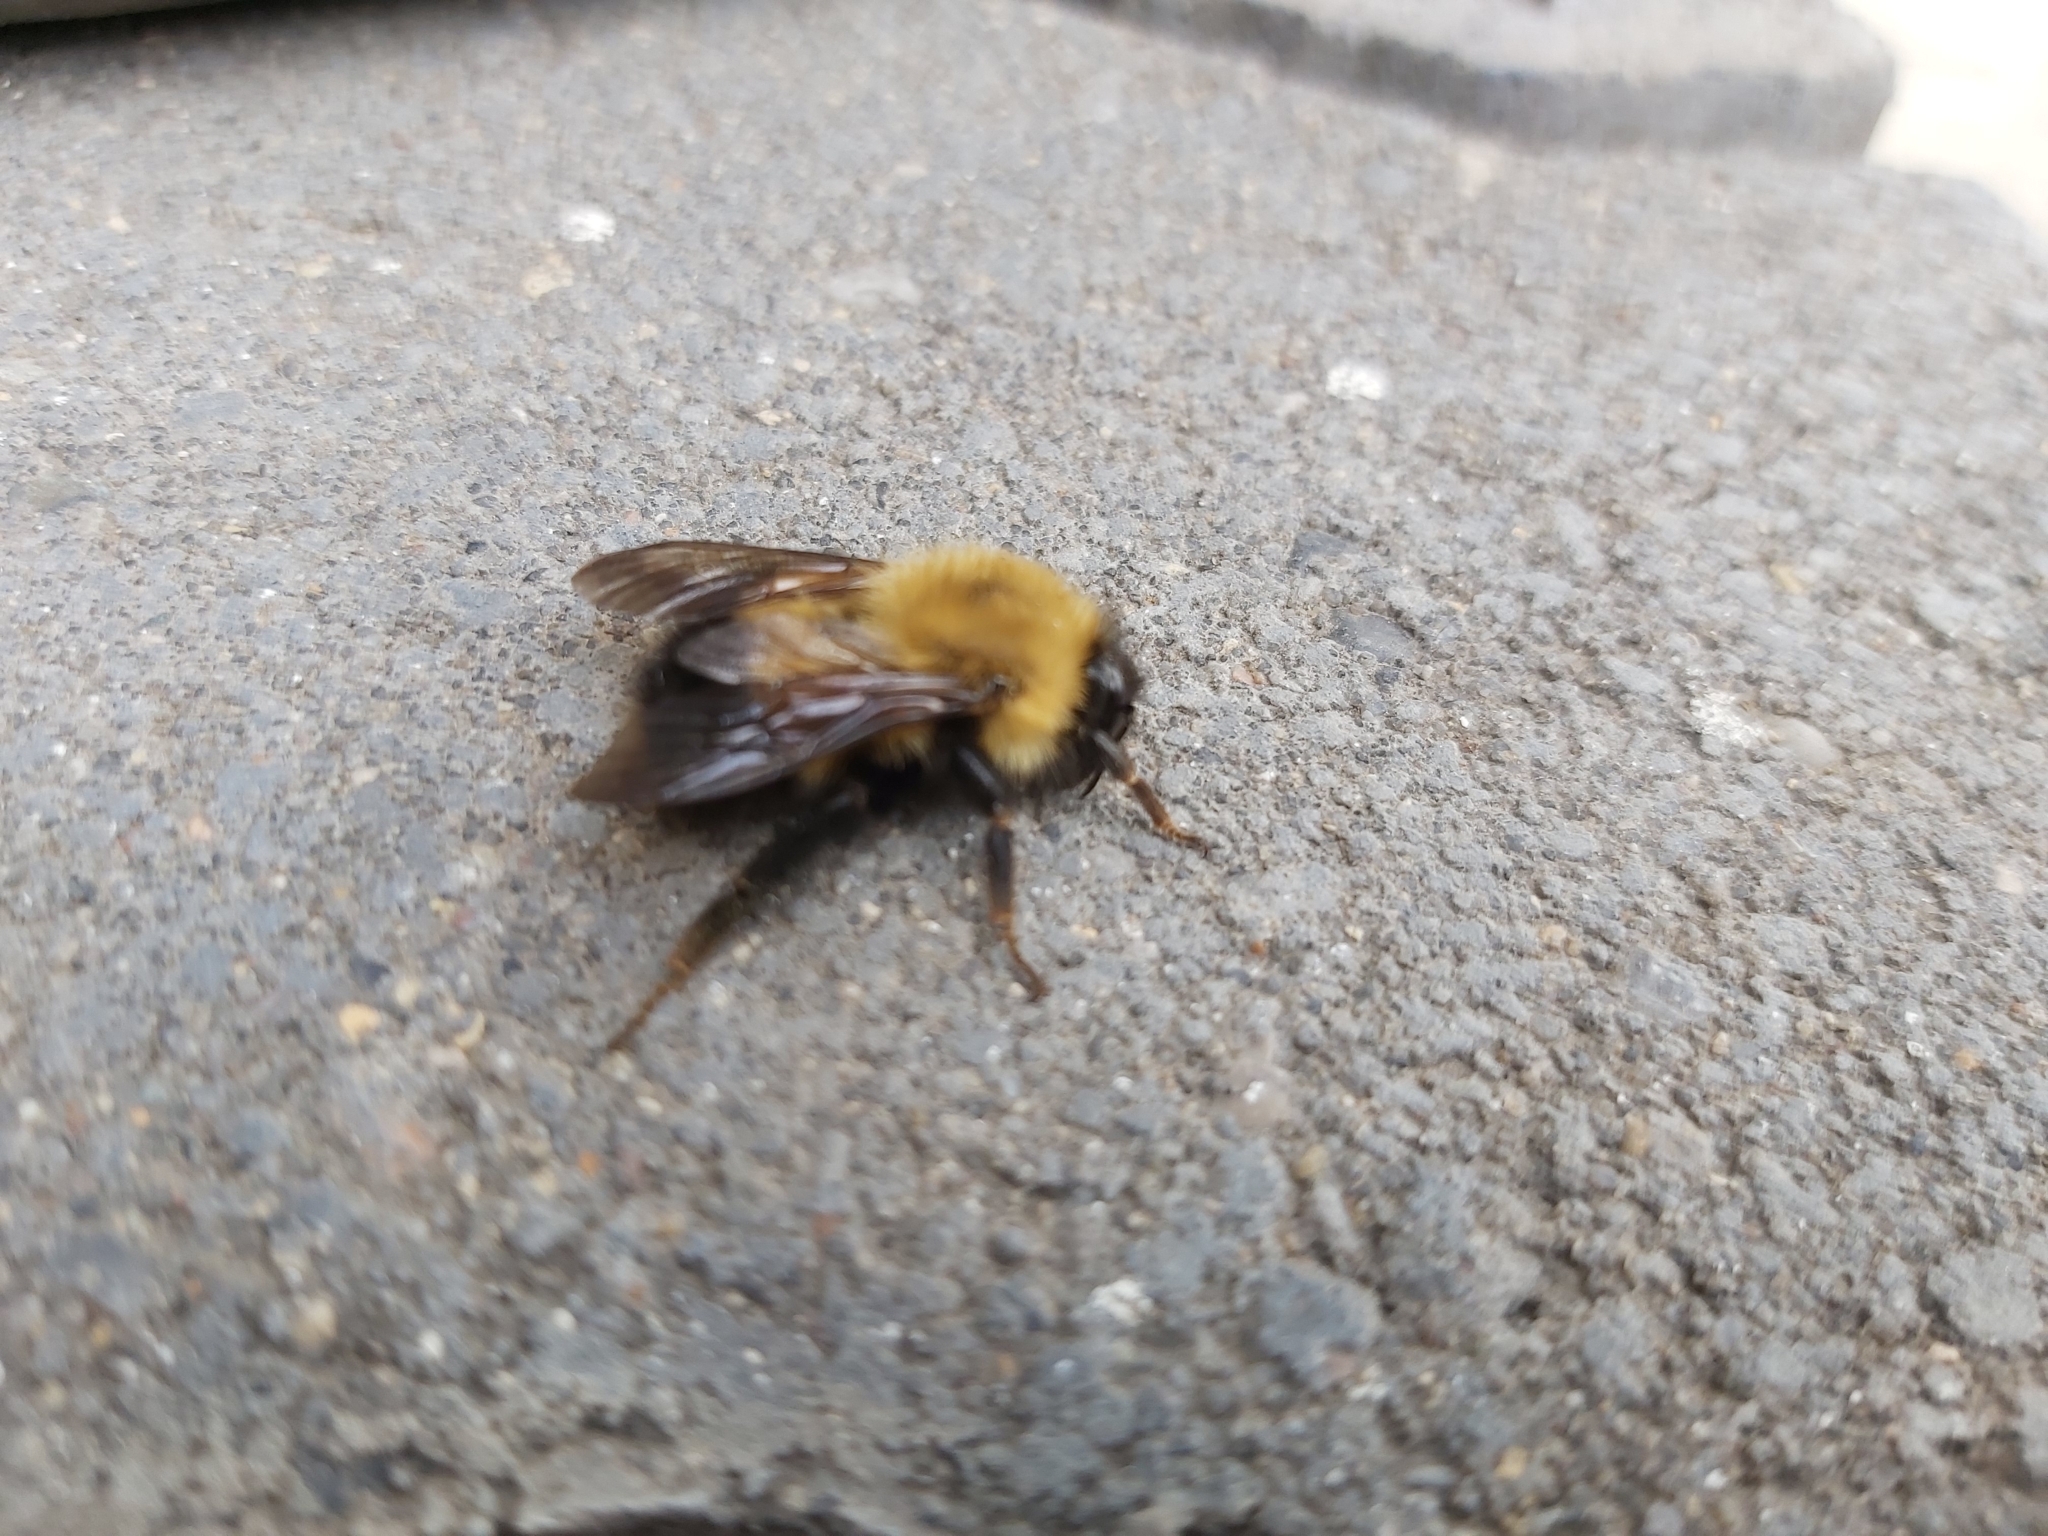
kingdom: Animalia
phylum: Arthropoda
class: Insecta
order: Hymenoptera
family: Apidae
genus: Bombus
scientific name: Bombus perplexus
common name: Confusing bumble bee
